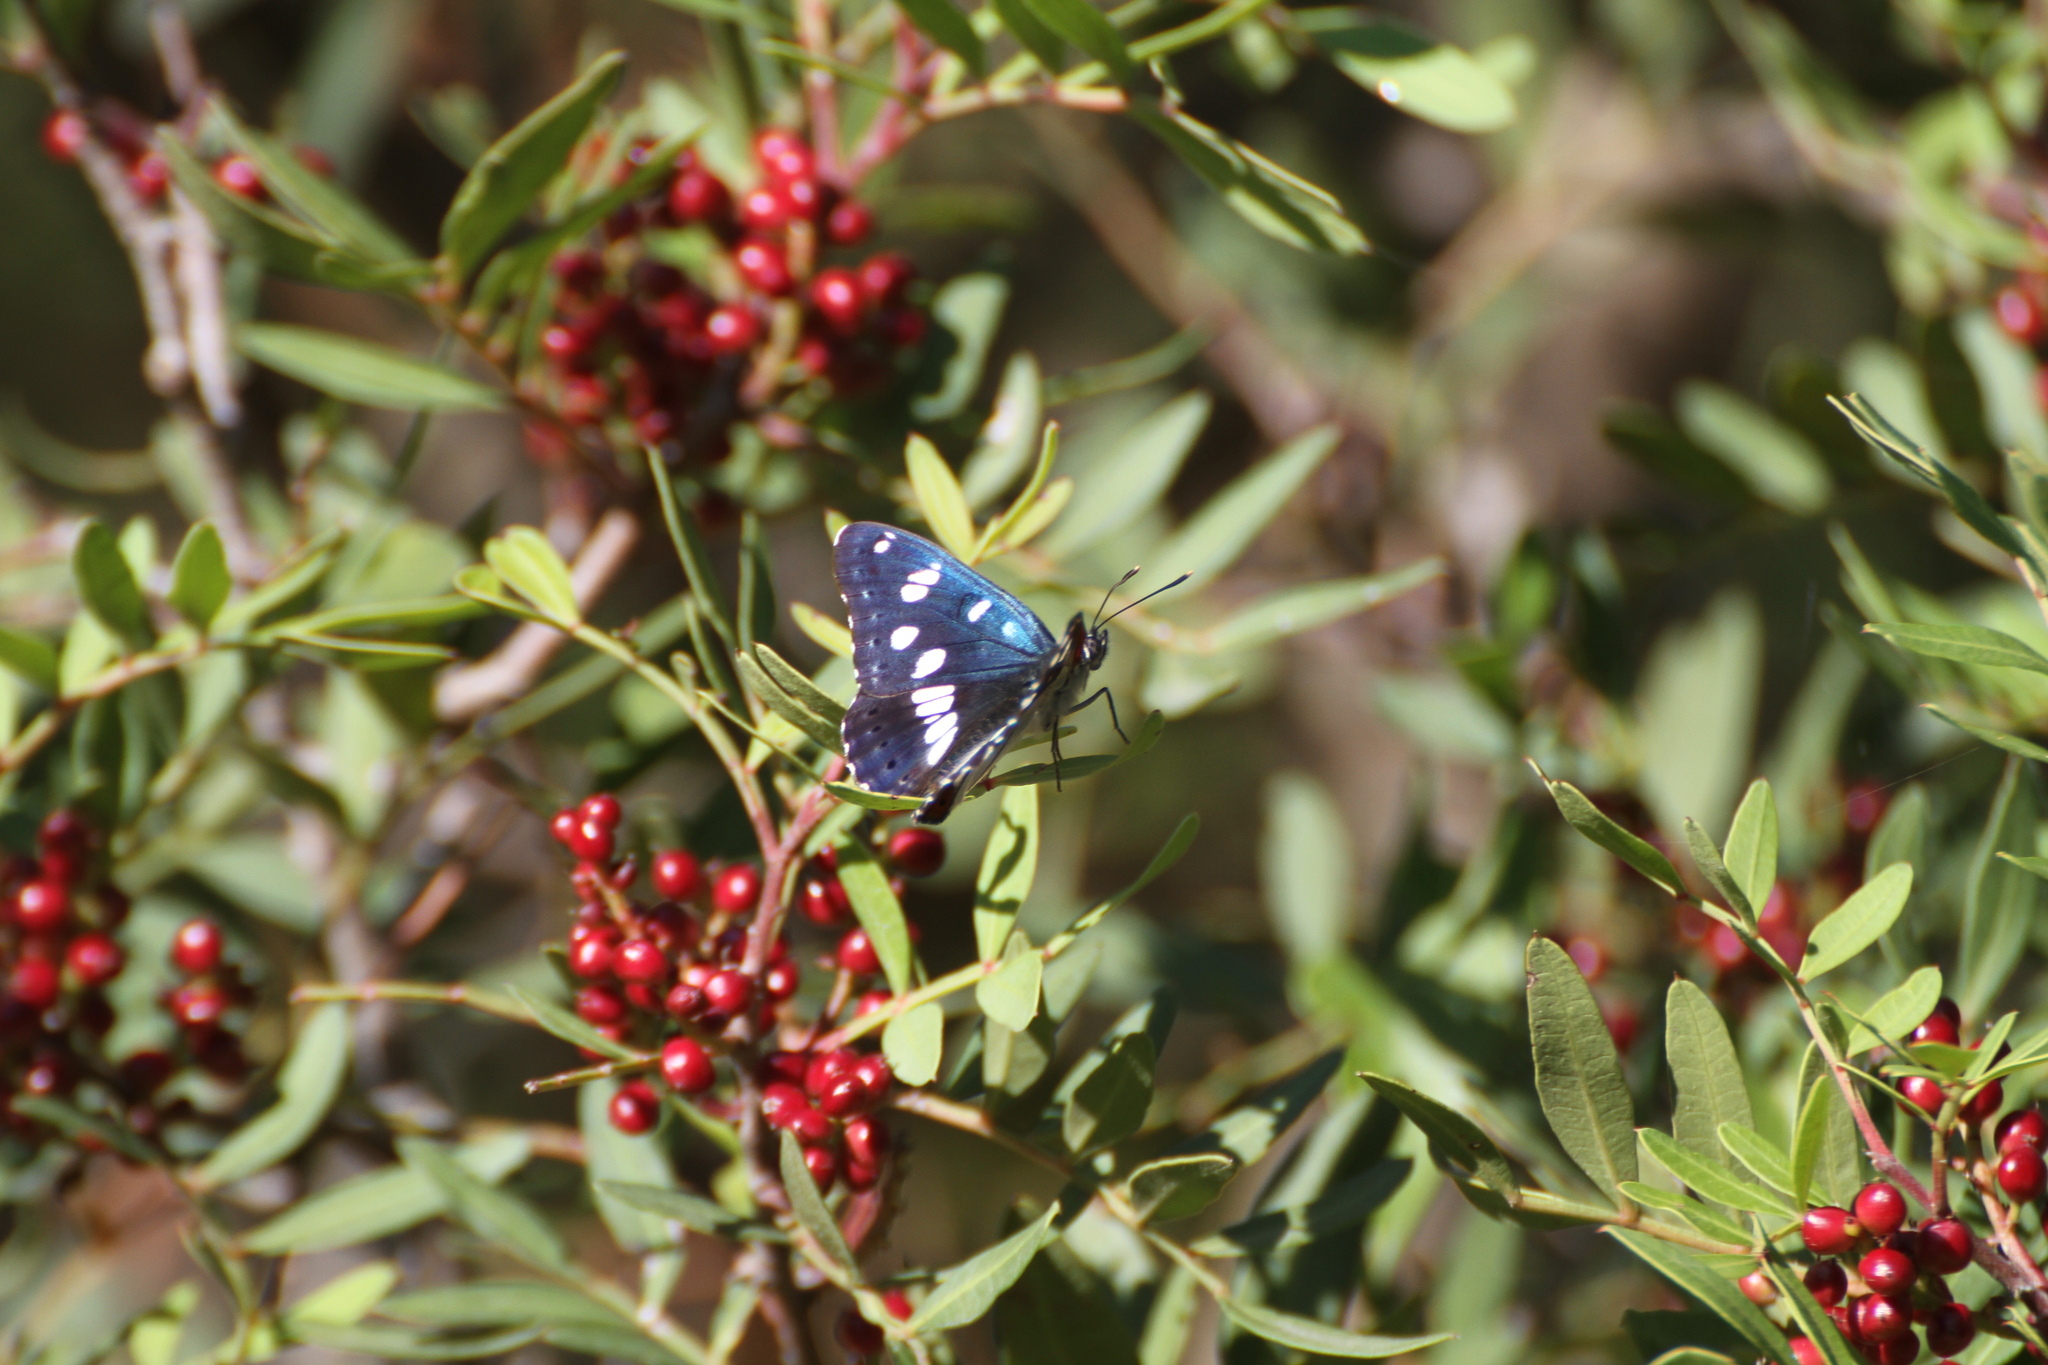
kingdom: Animalia
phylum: Arthropoda
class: Insecta
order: Lepidoptera
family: Nymphalidae
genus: Limenitis
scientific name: Limenitis reducta
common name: Southern white admiral
